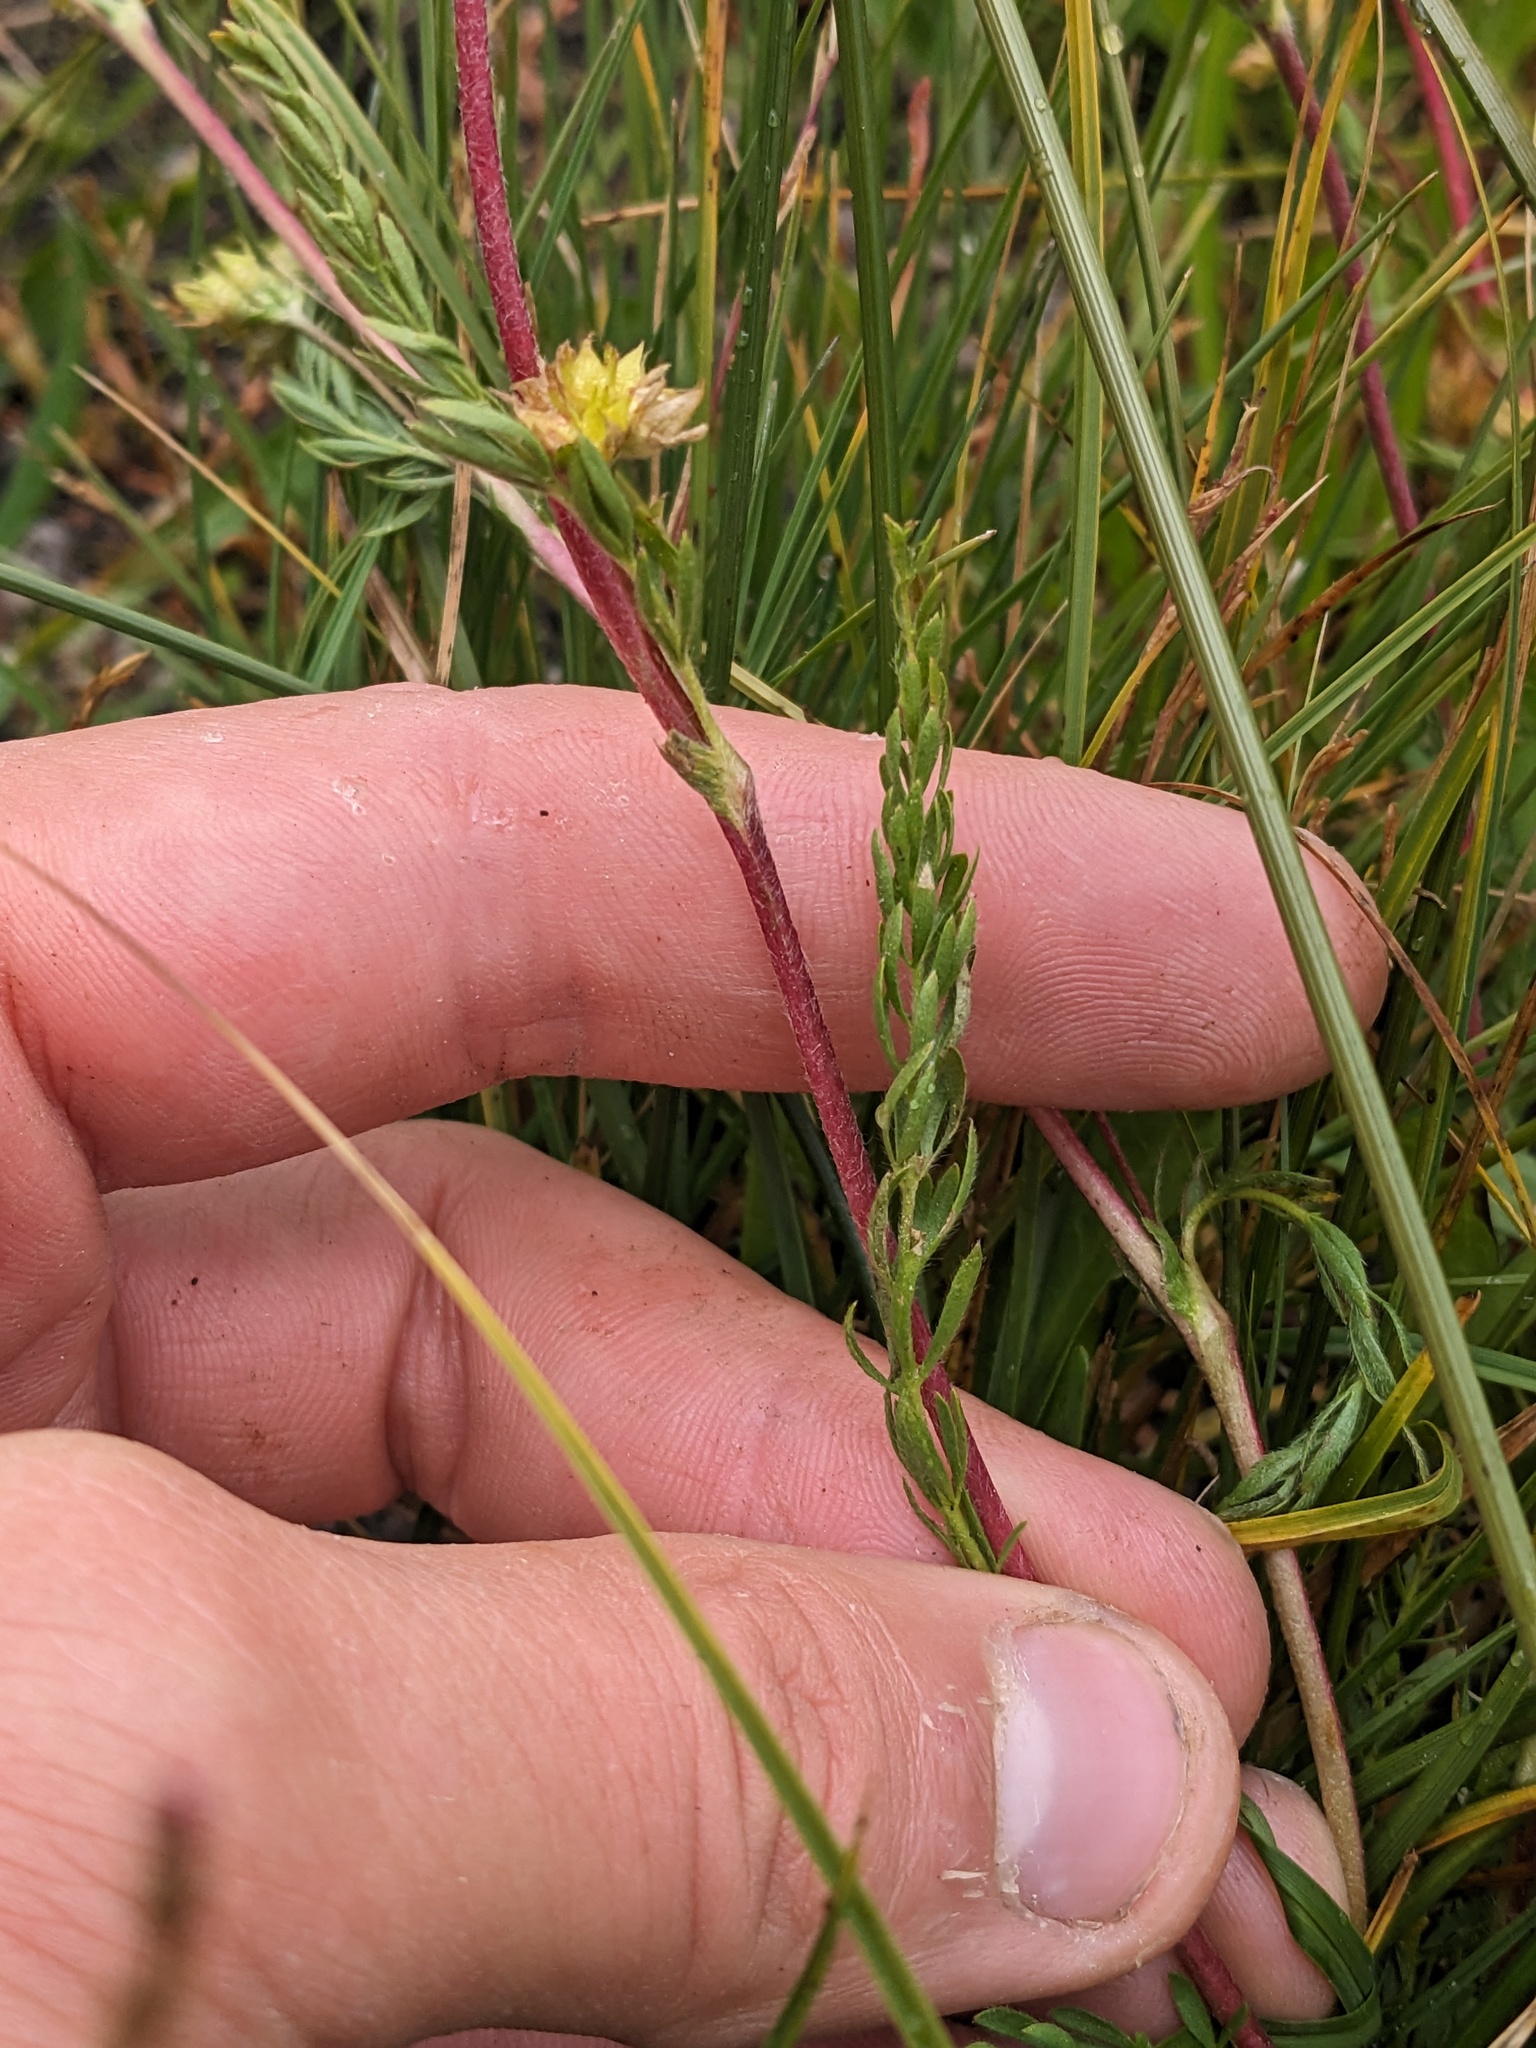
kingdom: Plantae
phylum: Tracheophyta
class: Magnoliopsida
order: Rosales
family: Rosaceae
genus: Potentilla
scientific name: Potentilla campestris
